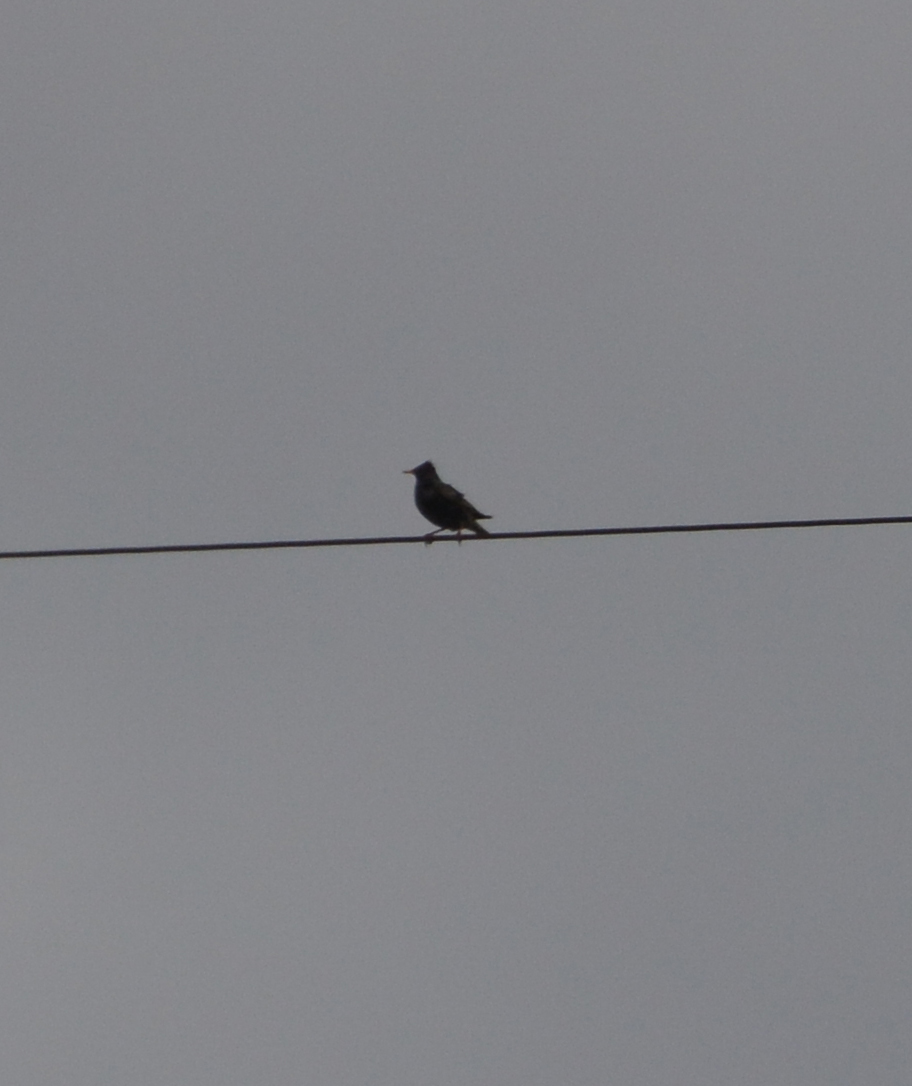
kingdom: Animalia
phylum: Chordata
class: Aves
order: Passeriformes
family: Sturnidae
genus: Sturnus
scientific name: Sturnus vulgaris
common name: Common starling
